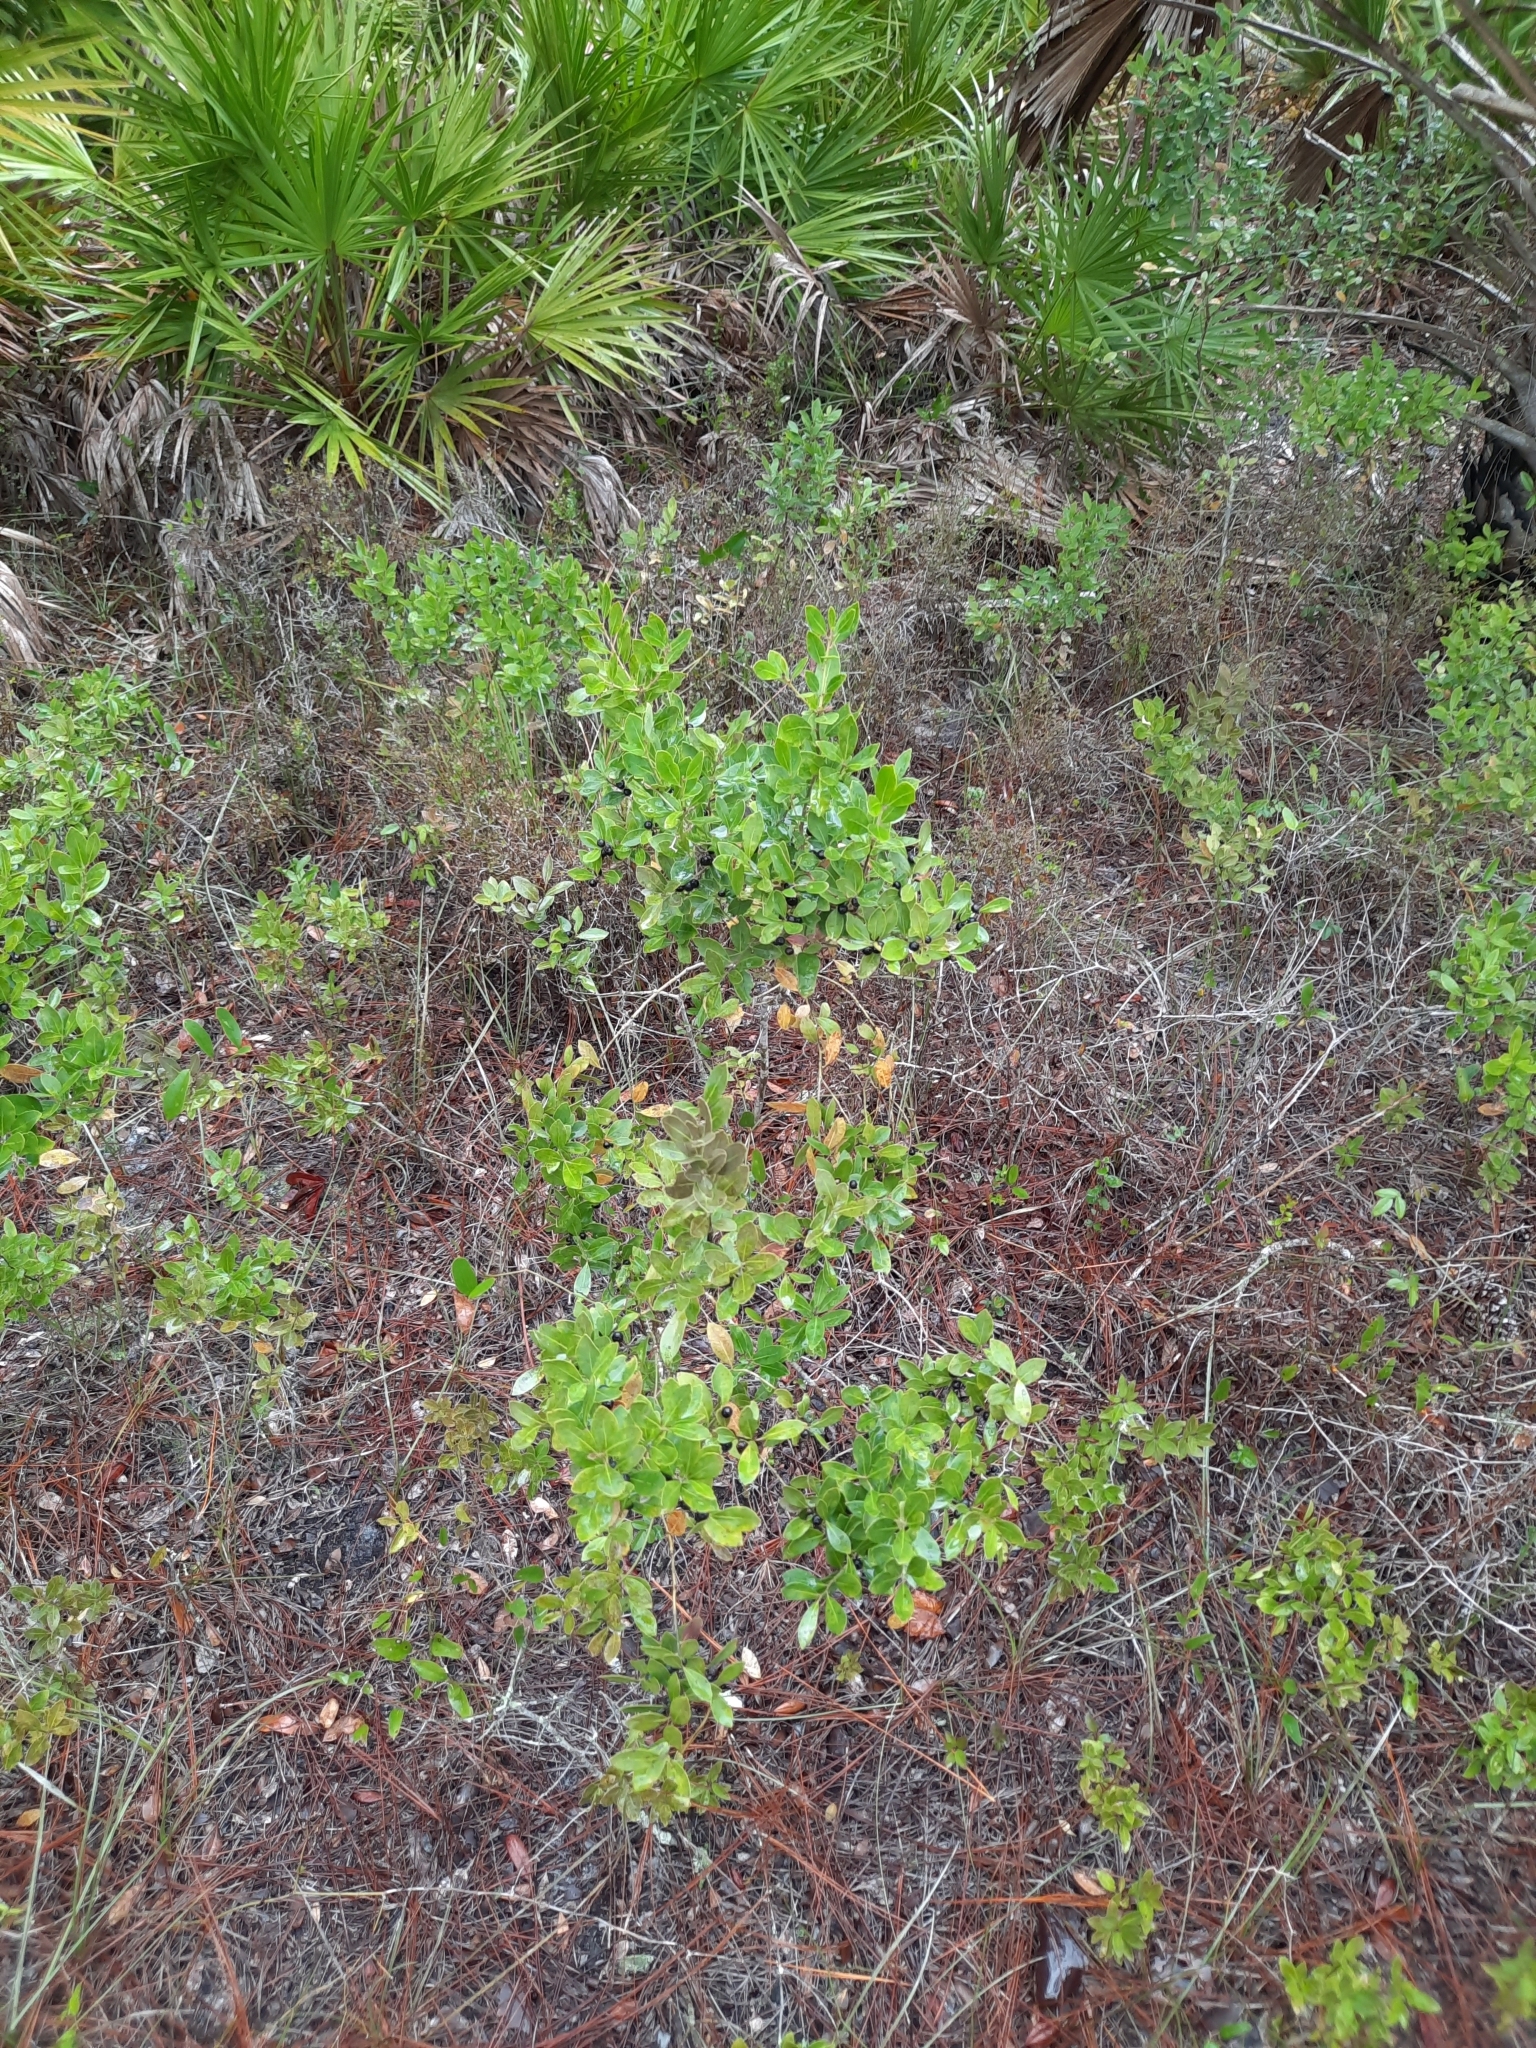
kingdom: Plantae
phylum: Tracheophyta
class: Magnoliopsida
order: Aquifoliales
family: Aquifoliaceae
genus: Ilex
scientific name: Ilex glabra
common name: Bitter gallberry
